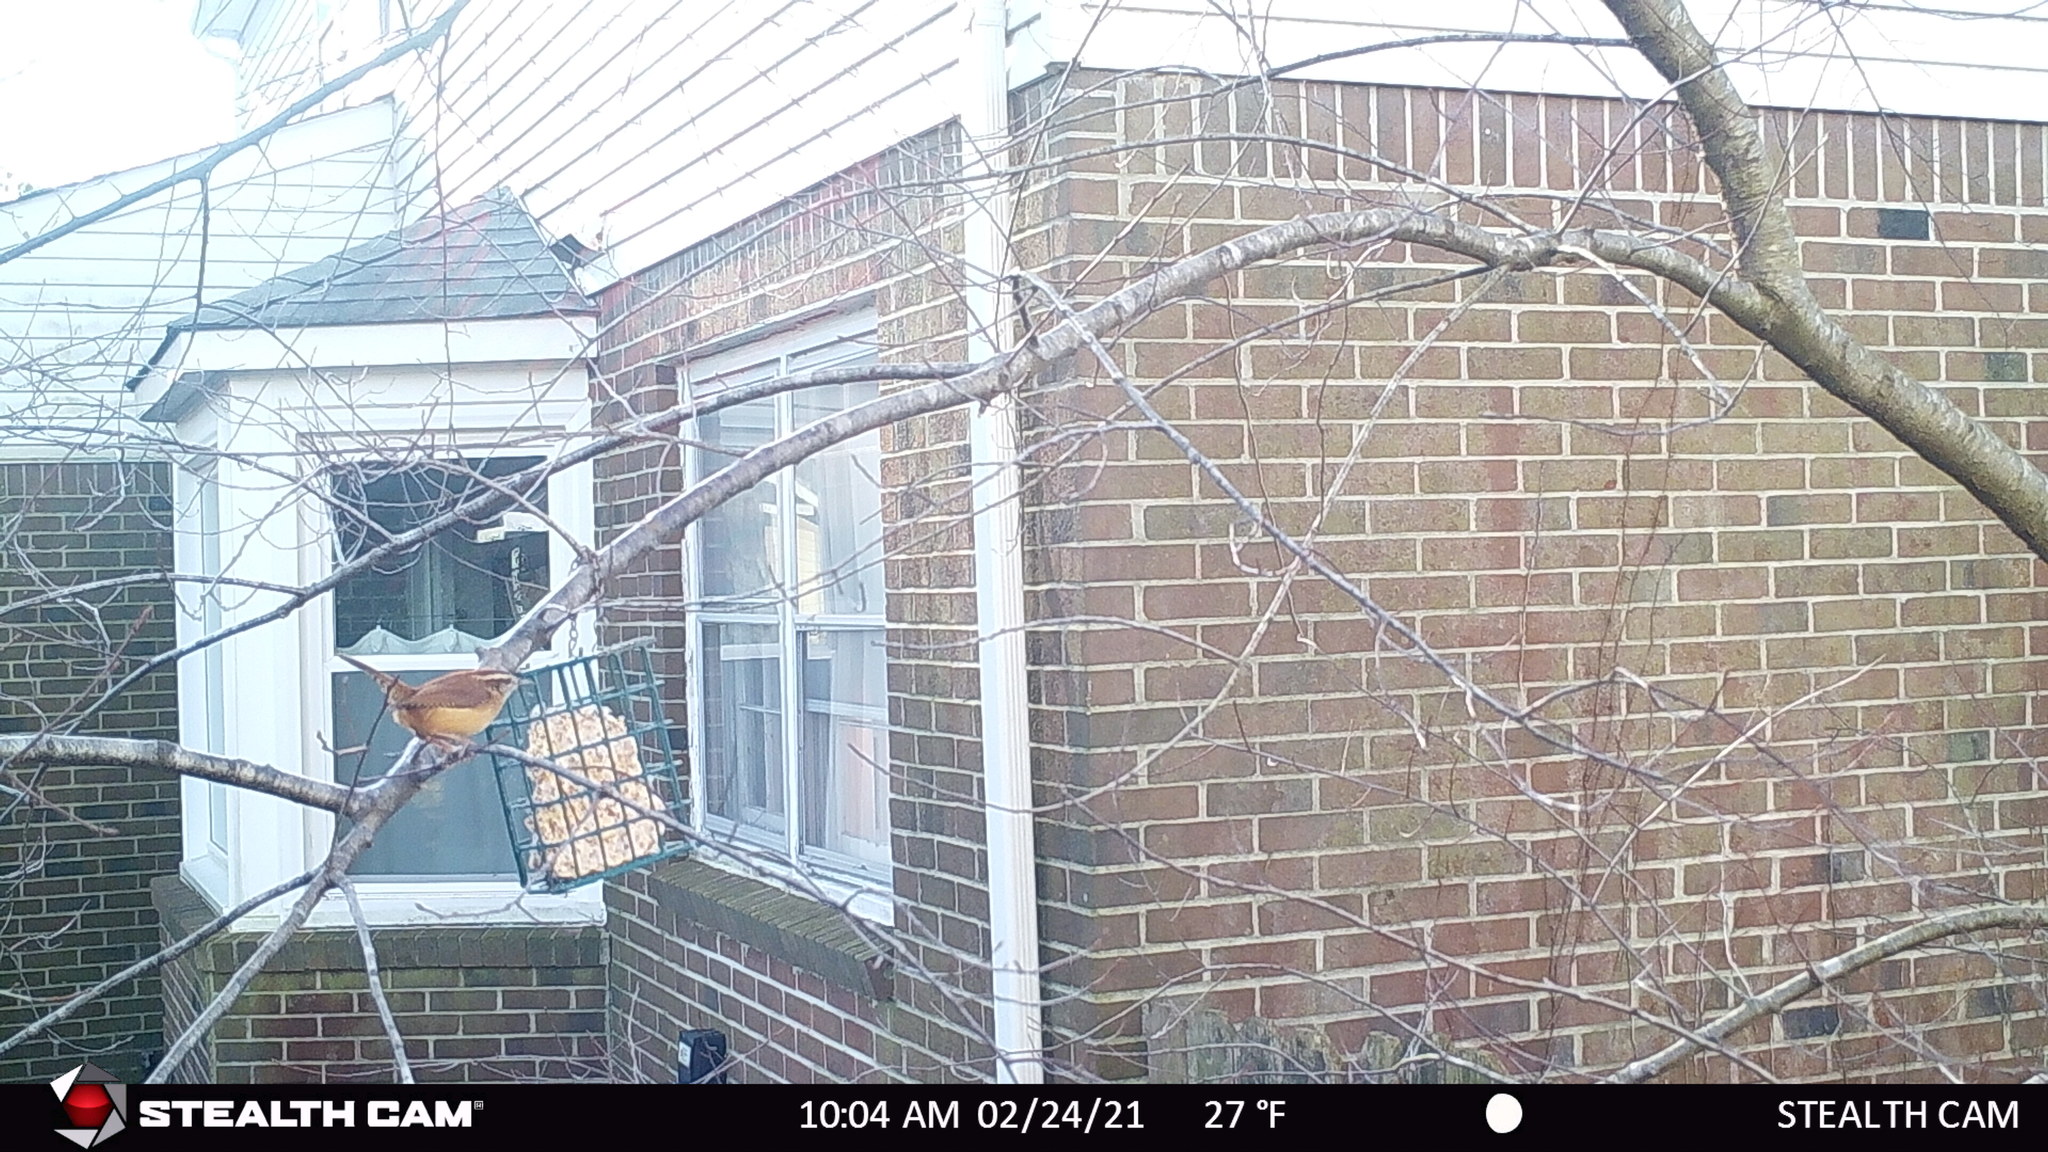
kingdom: Animalia
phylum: Chordata
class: Aves
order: Passeriformes
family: Troglodytidae
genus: Thryothorus
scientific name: Thryothorus ludovicianus
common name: Carolina wren
